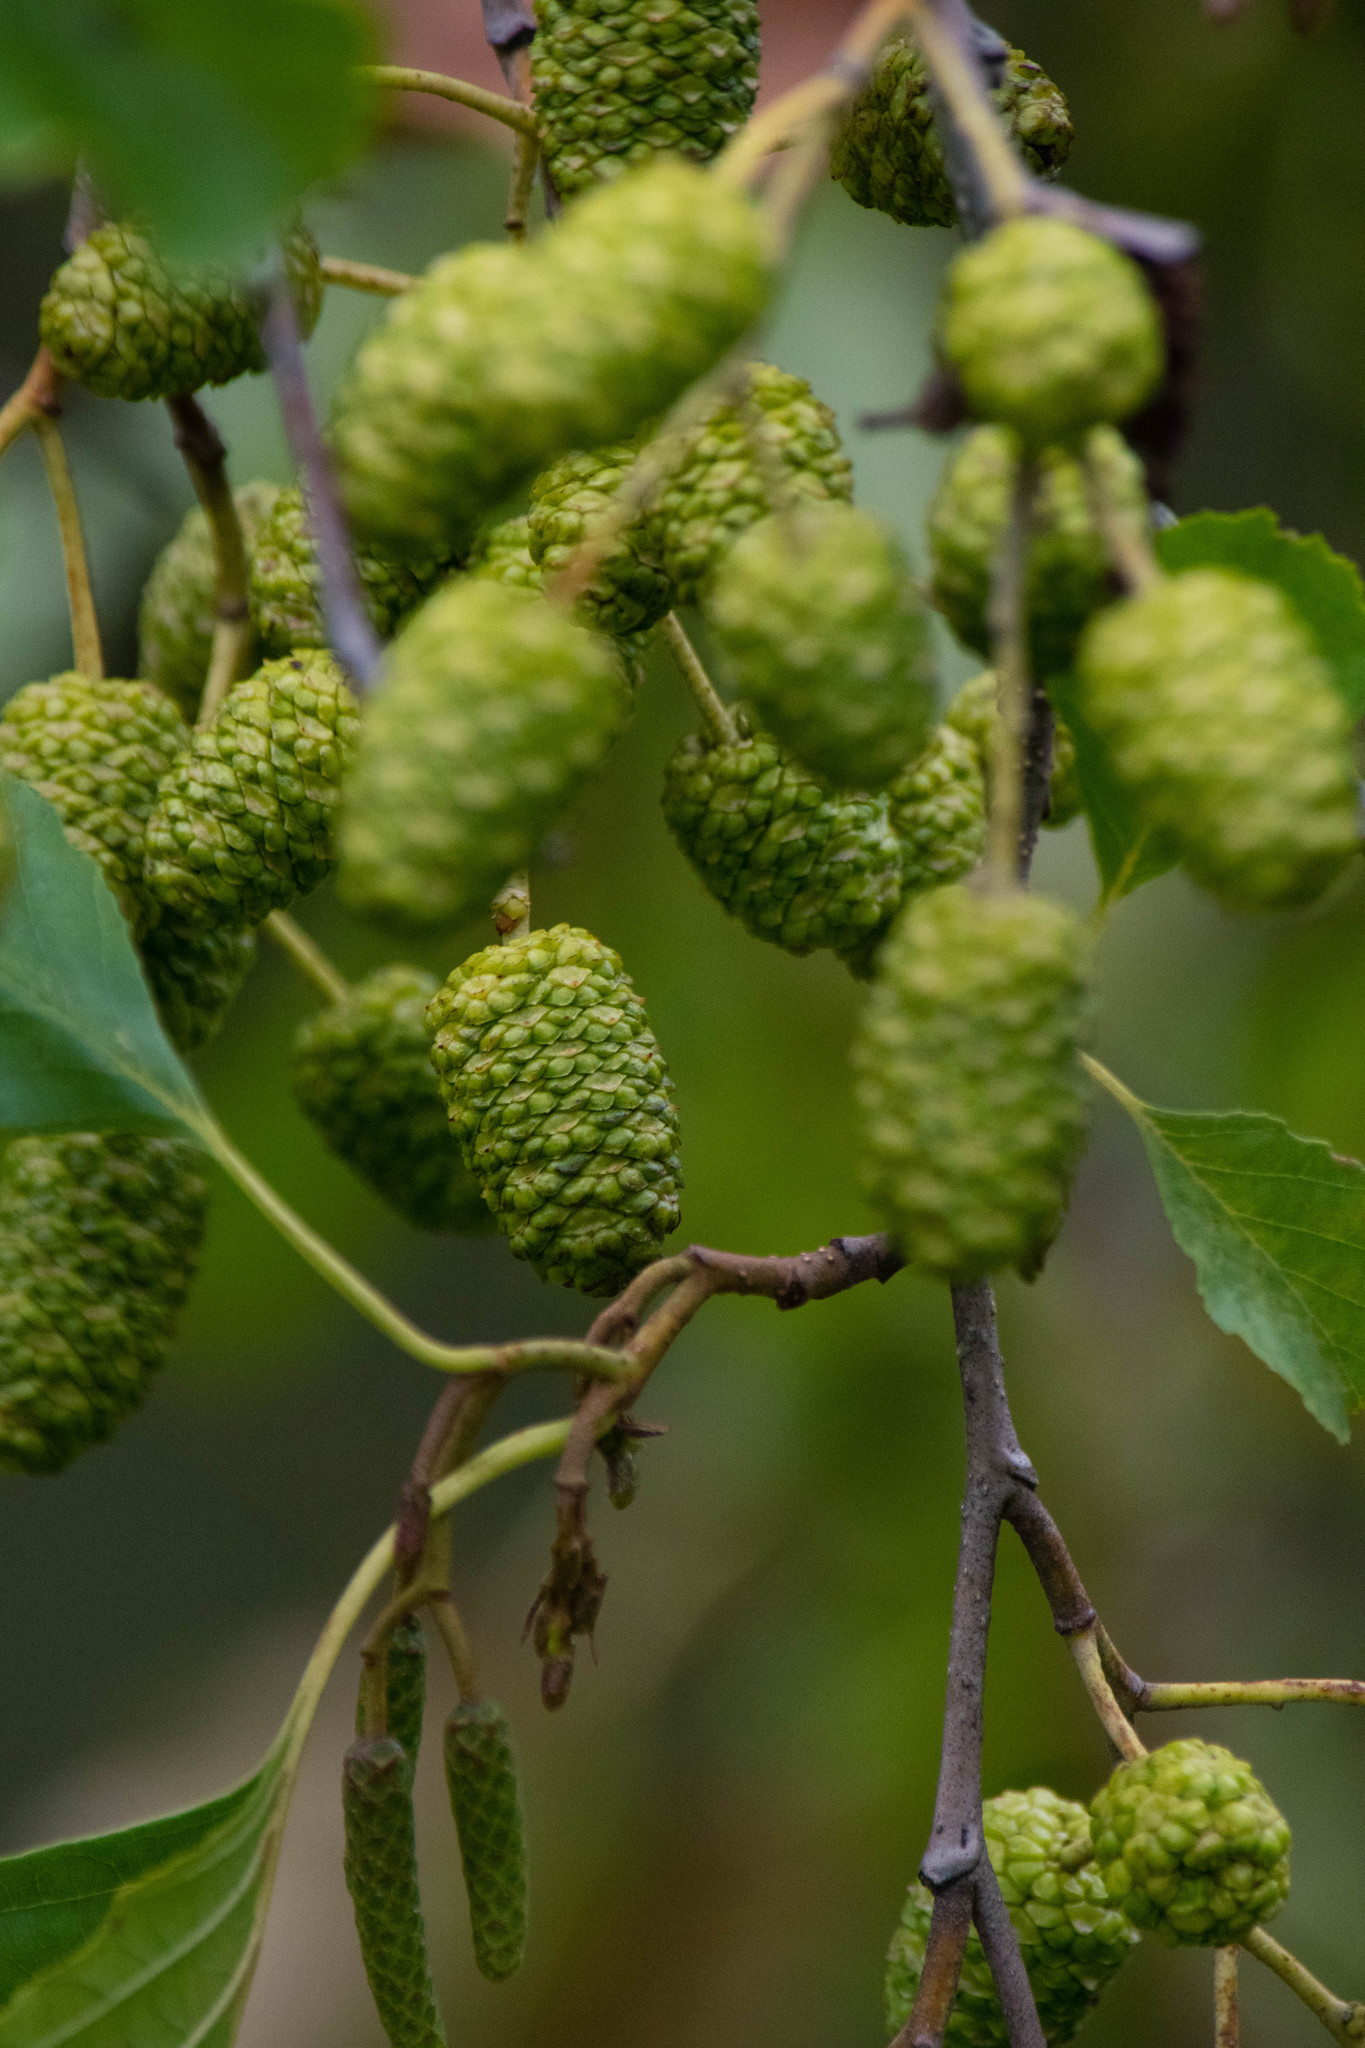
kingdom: Plantae
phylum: Tracheophyta
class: Magnoliopsida
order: Fagales
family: Betulaceae
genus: Alnus
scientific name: Alnus glutinosa
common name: Black alder
